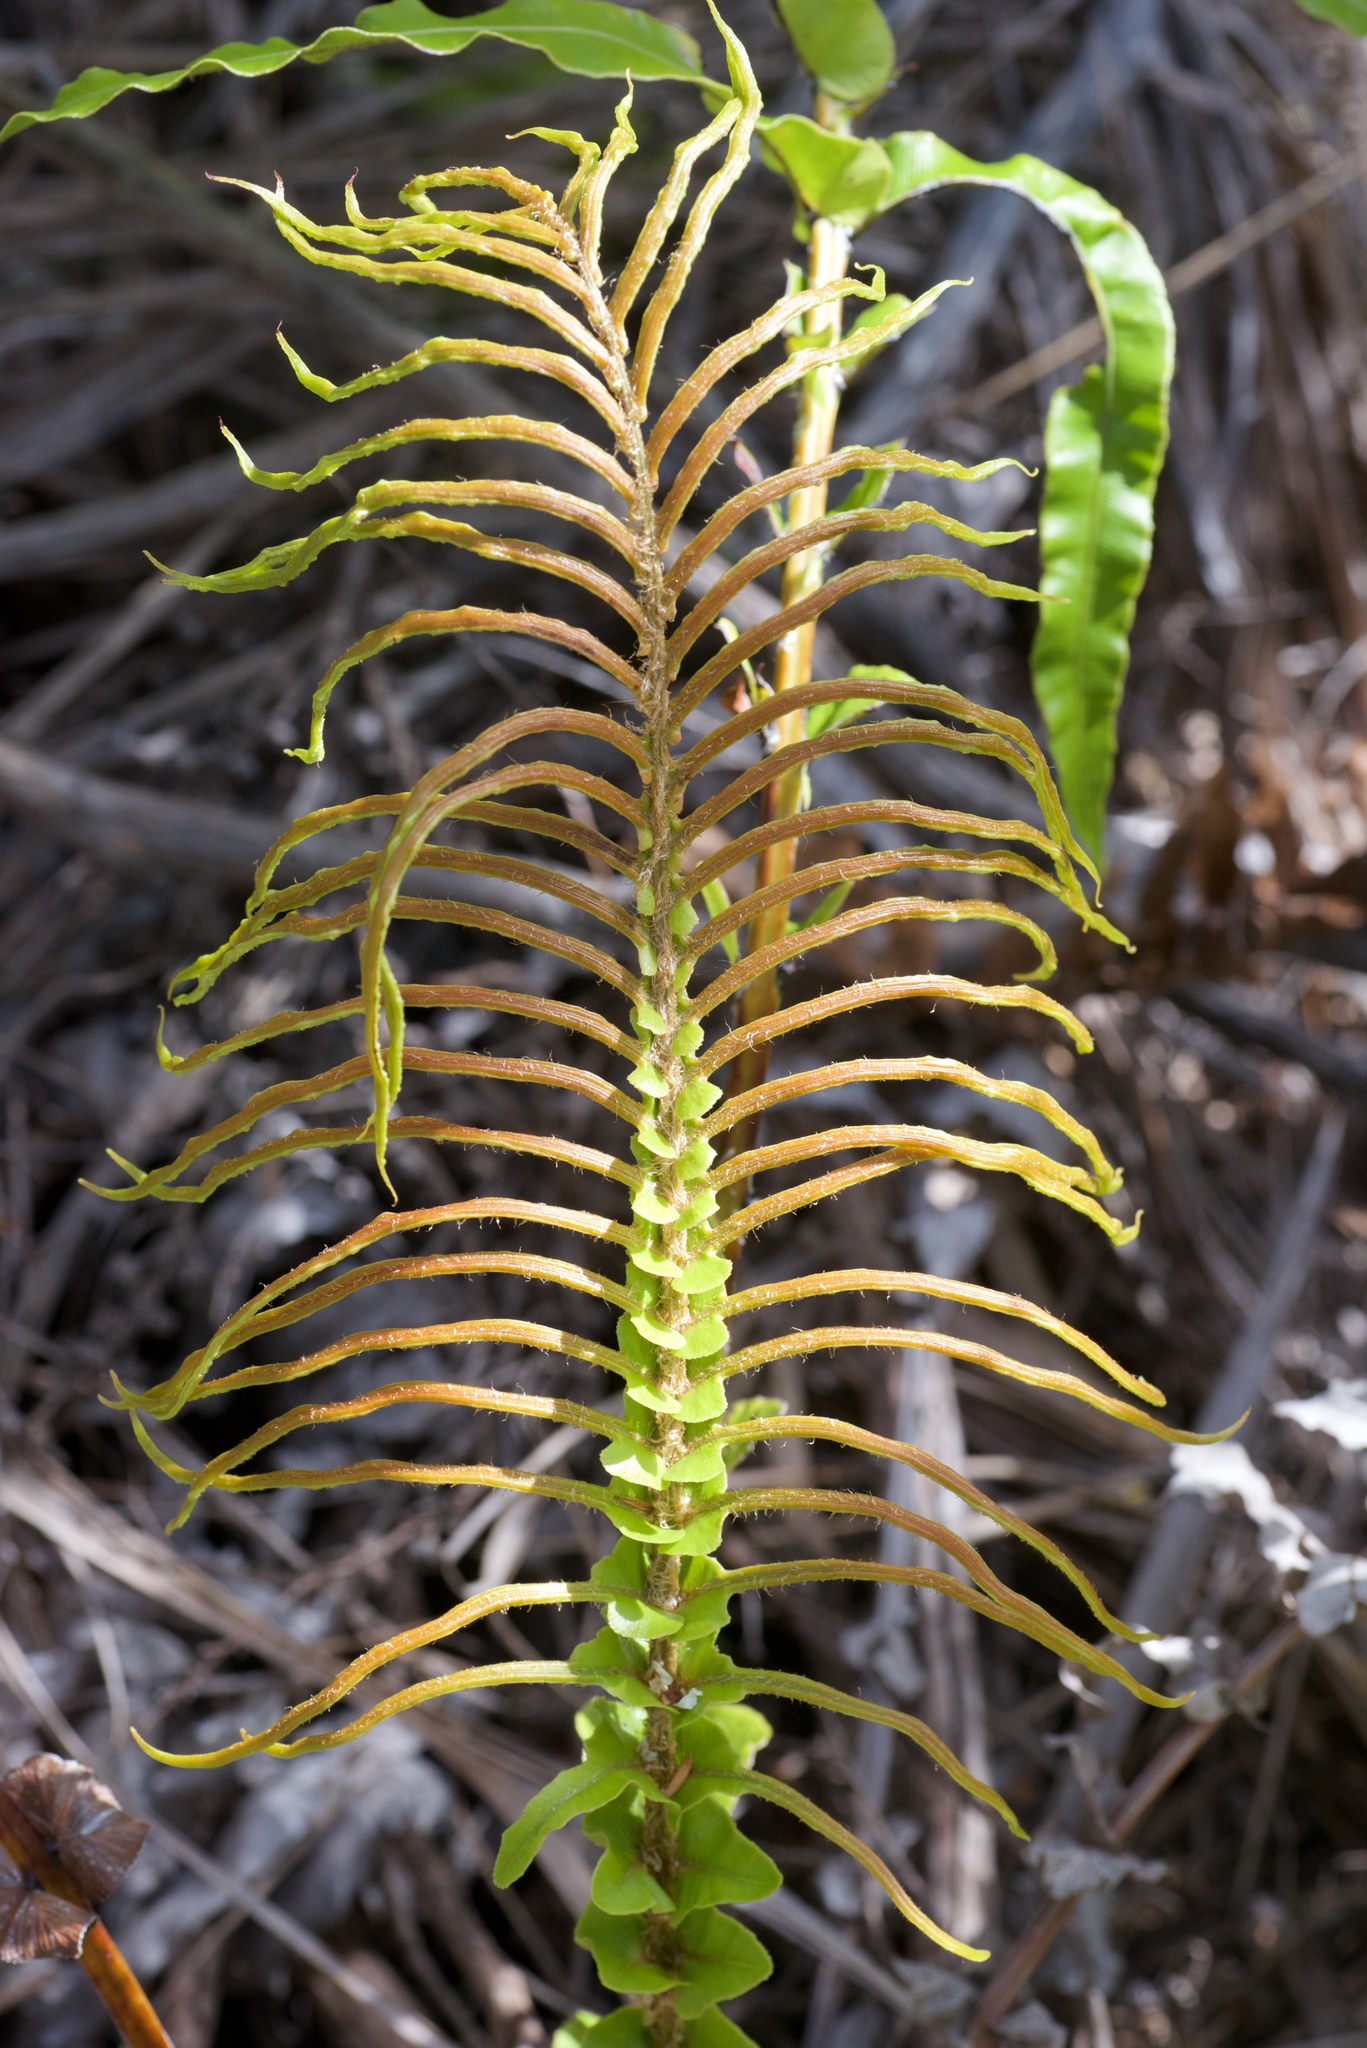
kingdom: Plantae
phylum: Tracheophyta
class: Polypodiopsida
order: Polypodiales
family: Blechnaceae
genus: Parablechnum
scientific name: Parablechnum novae-zelandiae
